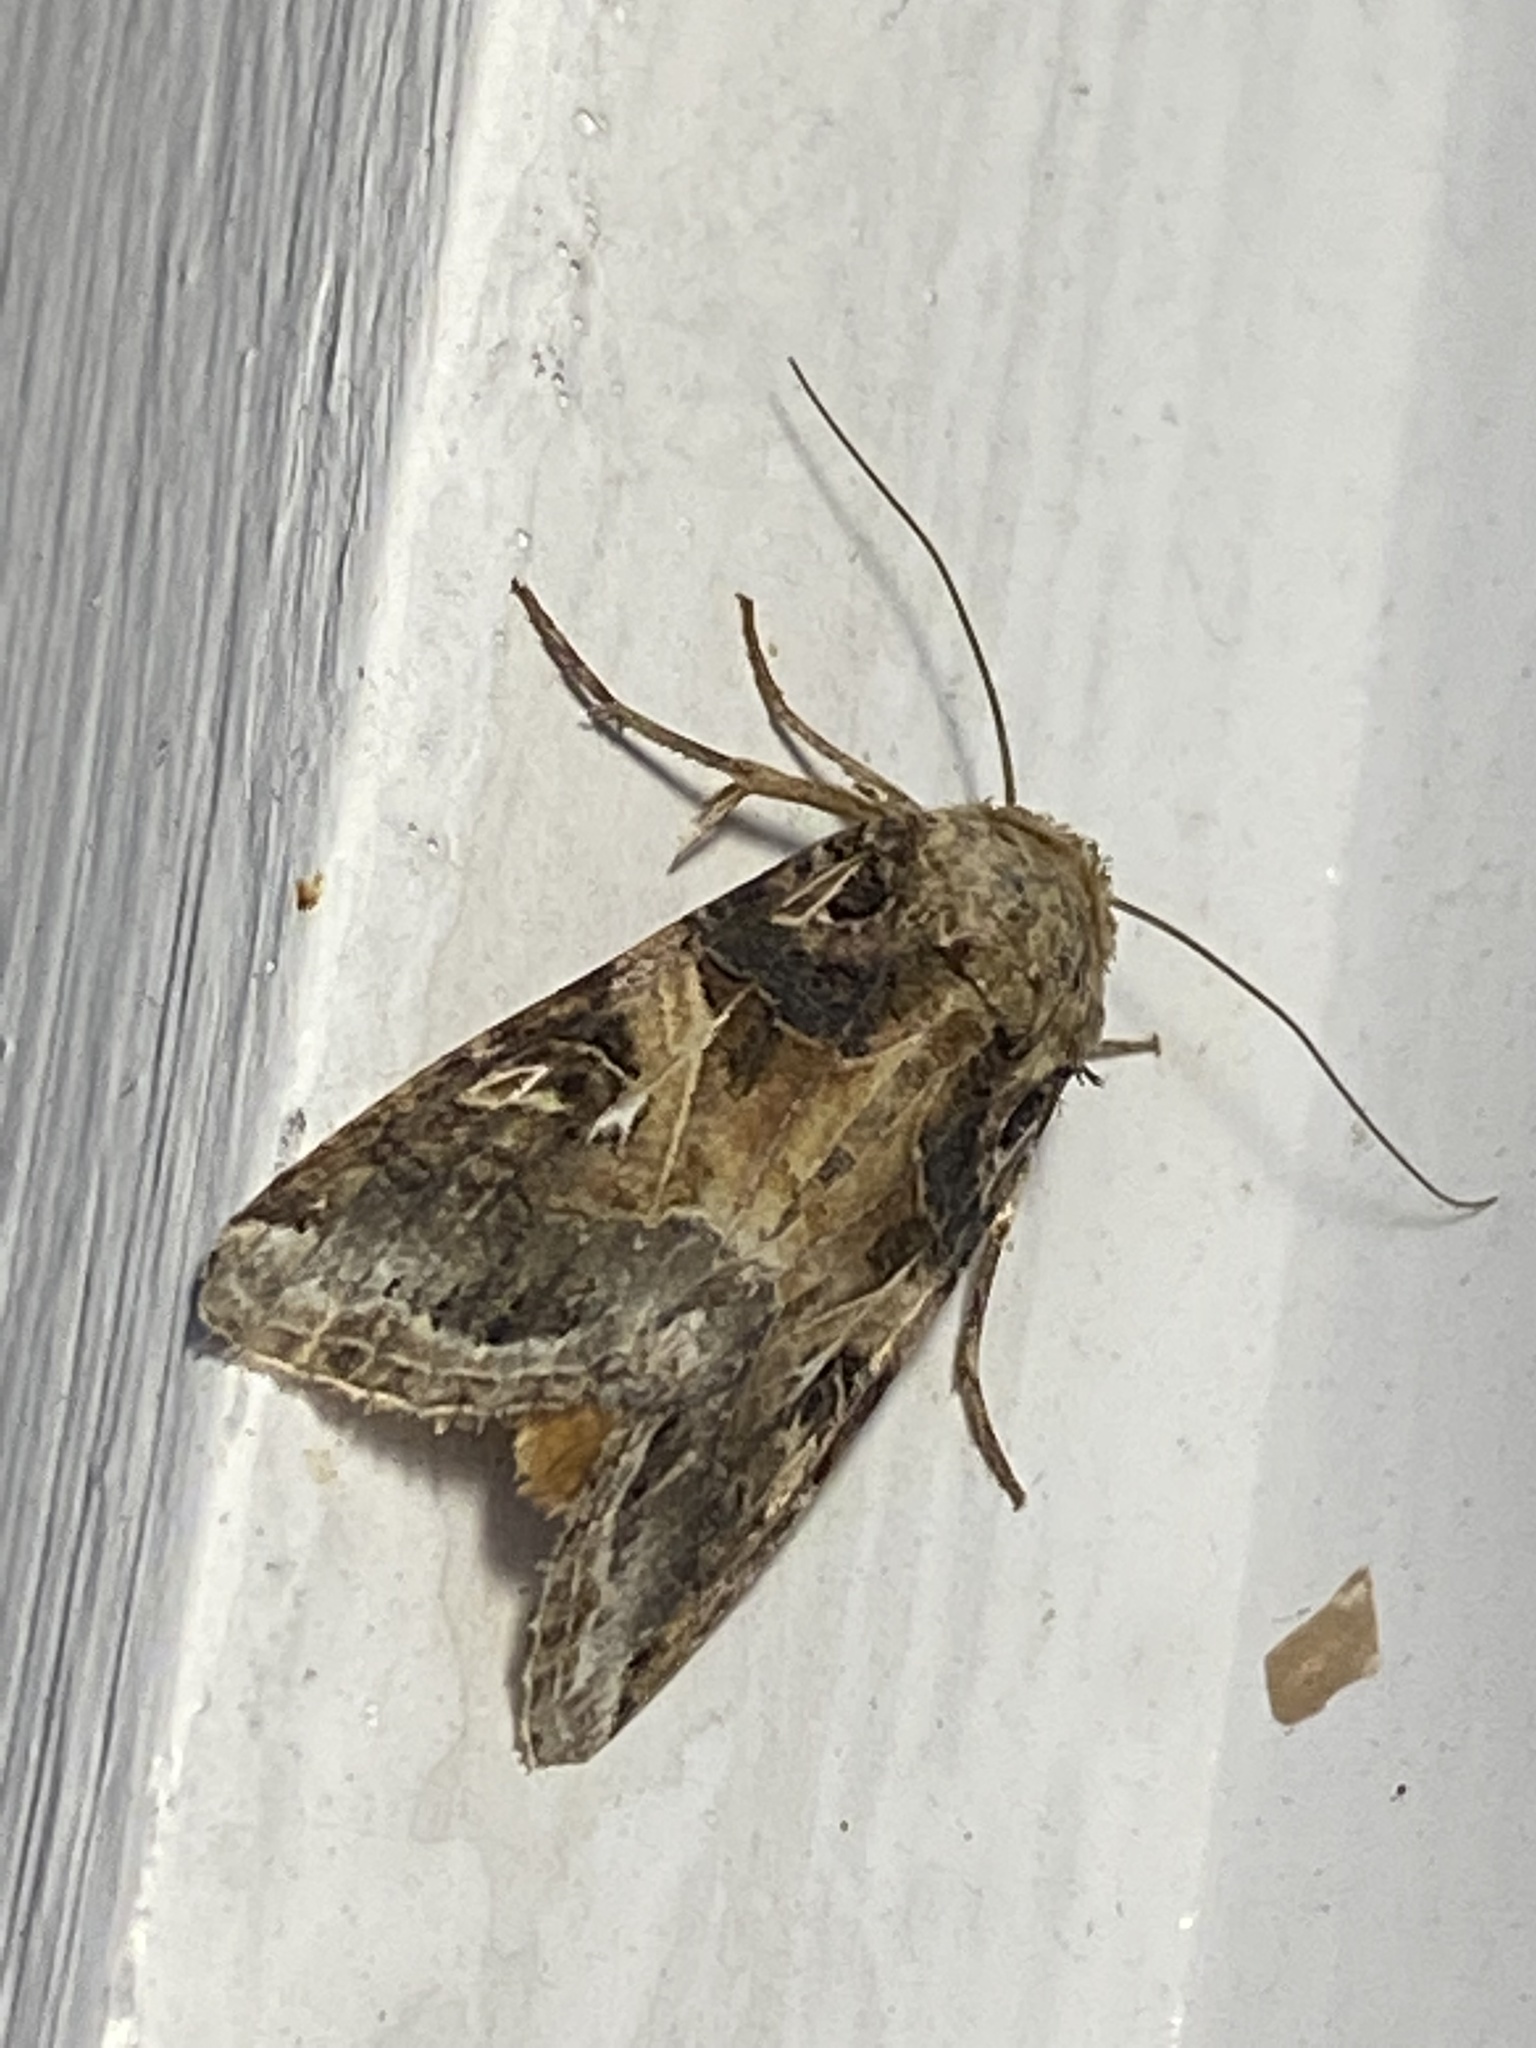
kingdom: Animalia
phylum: Arthropoda
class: Insecta
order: Lepidoptera
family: Noctuidae
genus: Spodoptera
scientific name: Spodoptera ornithogalli
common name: Yellow-striped armyworm
